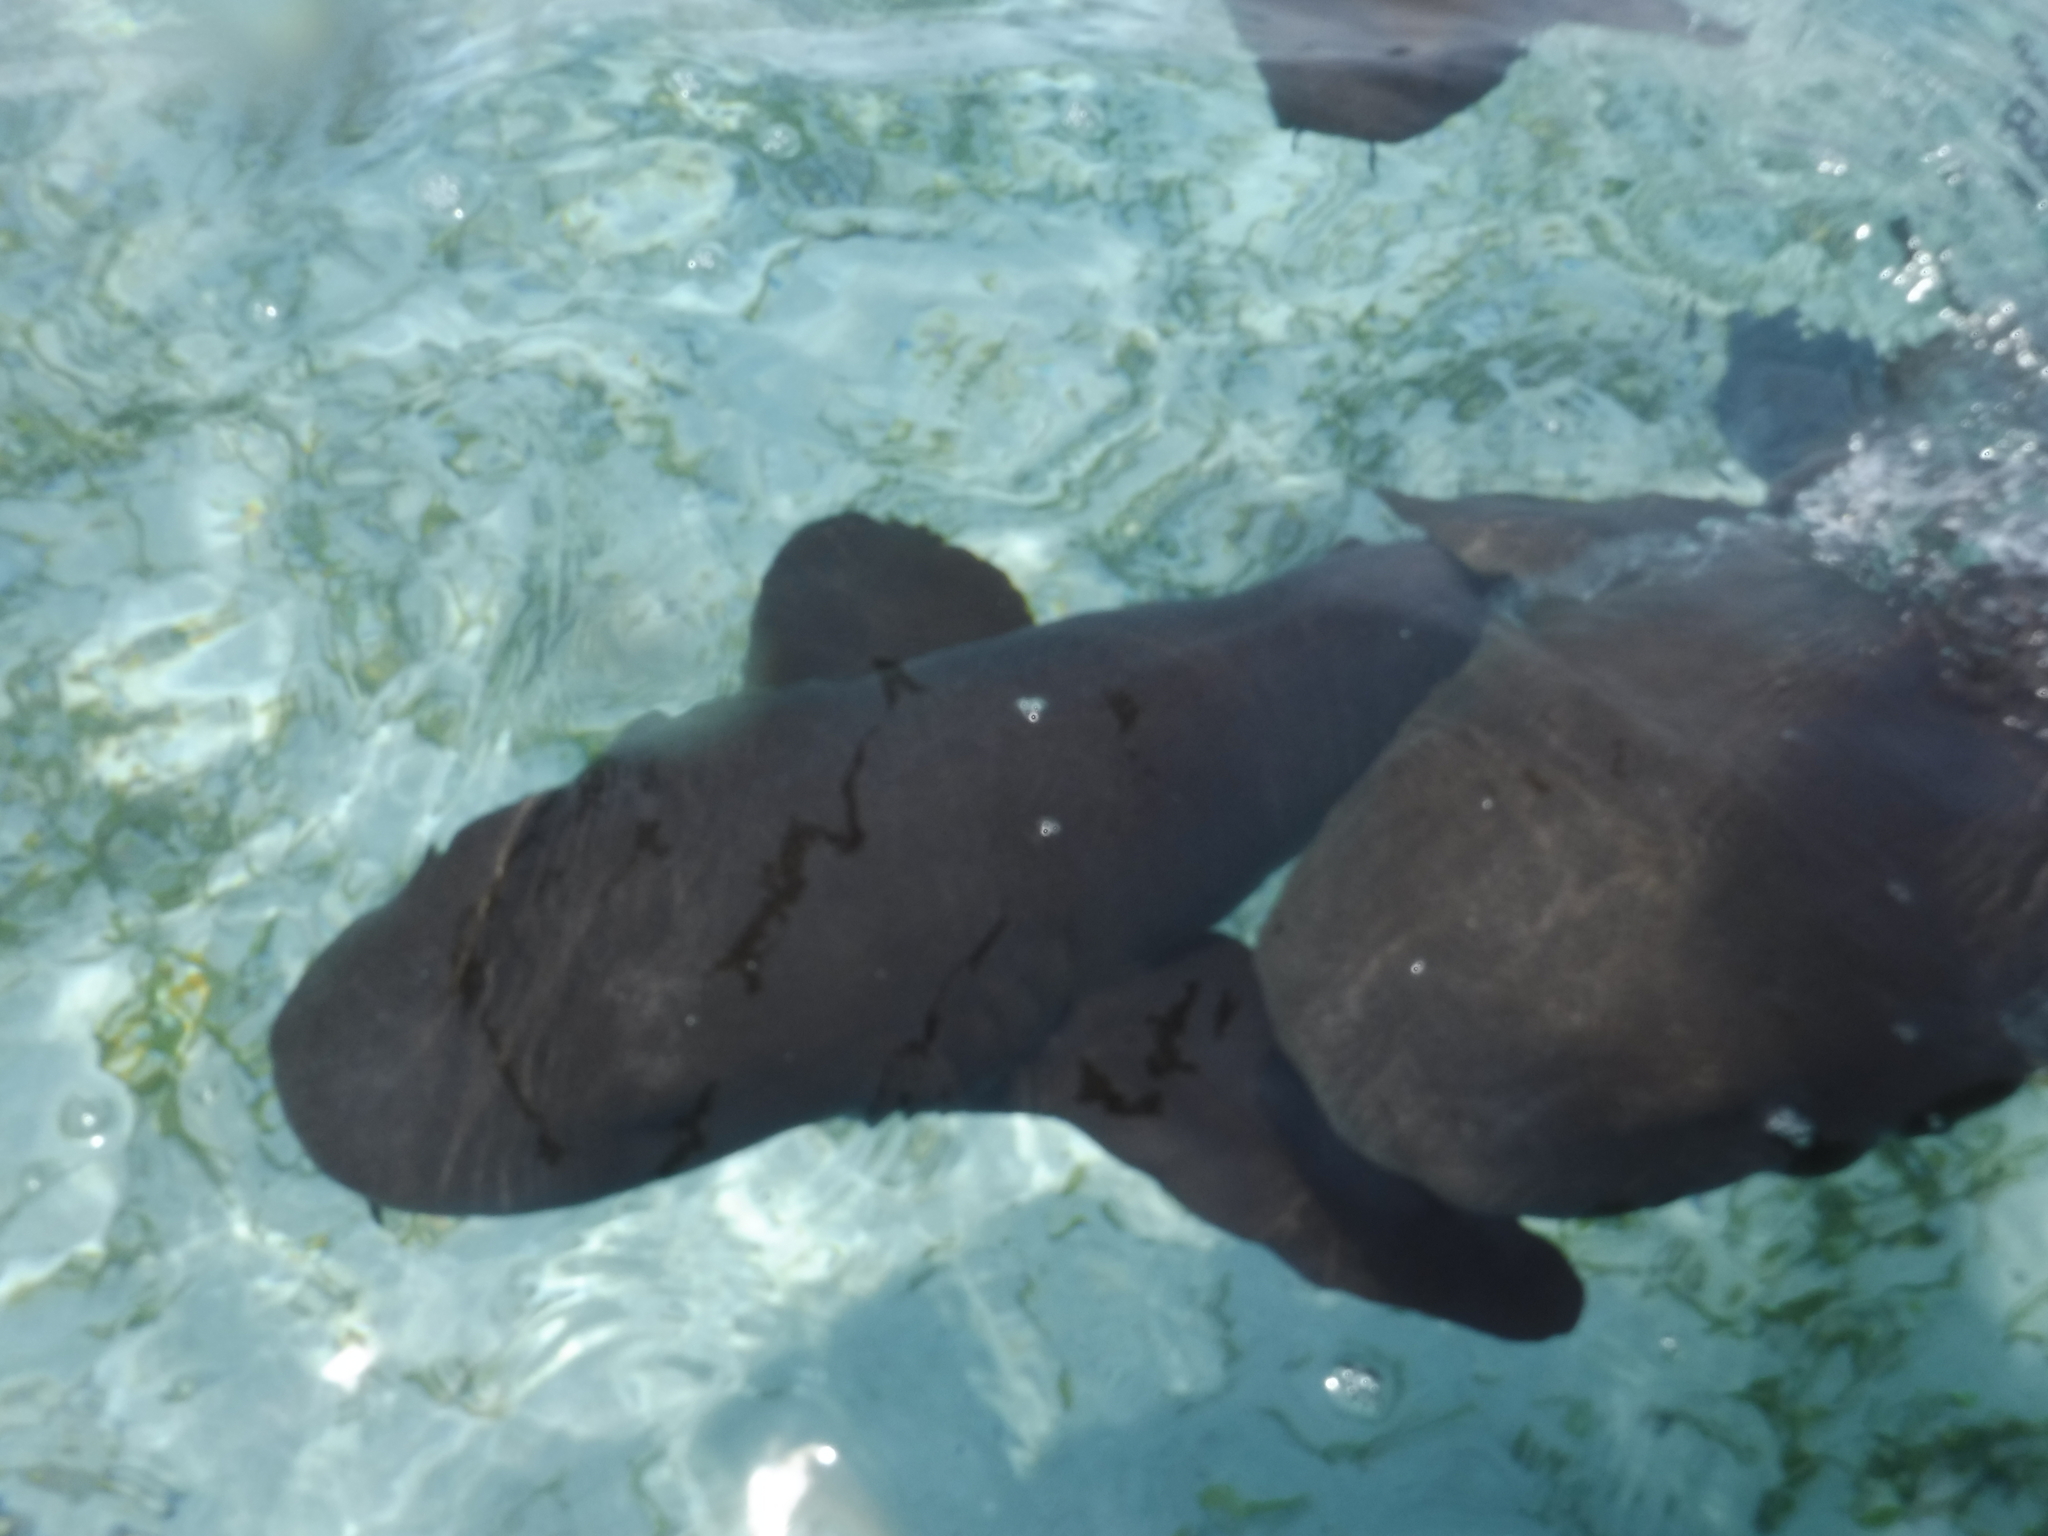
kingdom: Animalia
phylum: Chordata
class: Elasmobranchii
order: Orectolobiformes
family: Ginglymostomatidae
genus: Ginglymostoma
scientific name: Ginglymostoma cirratum
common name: Nurse shark
